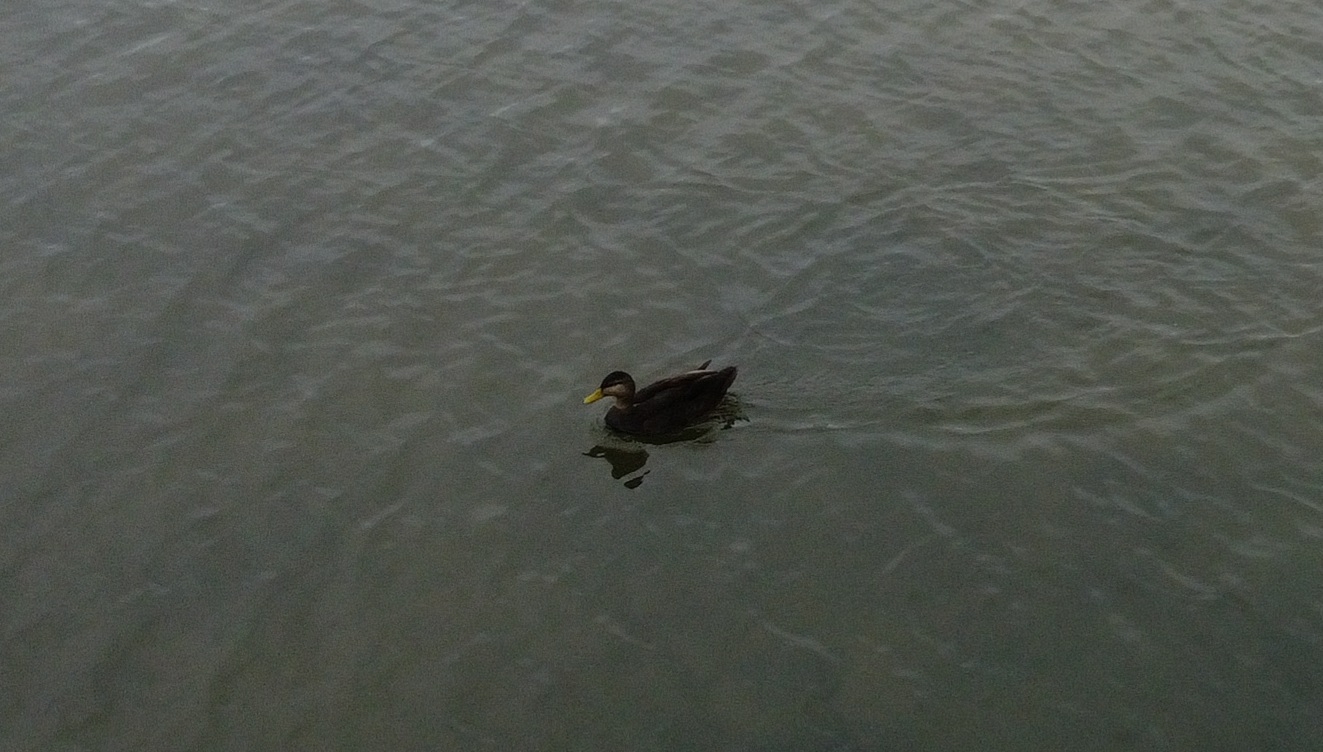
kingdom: Animalia
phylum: Chordata
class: Aves
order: Anseriformes
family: Anatidae
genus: Anas
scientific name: Anas rubripes
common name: American black duck
